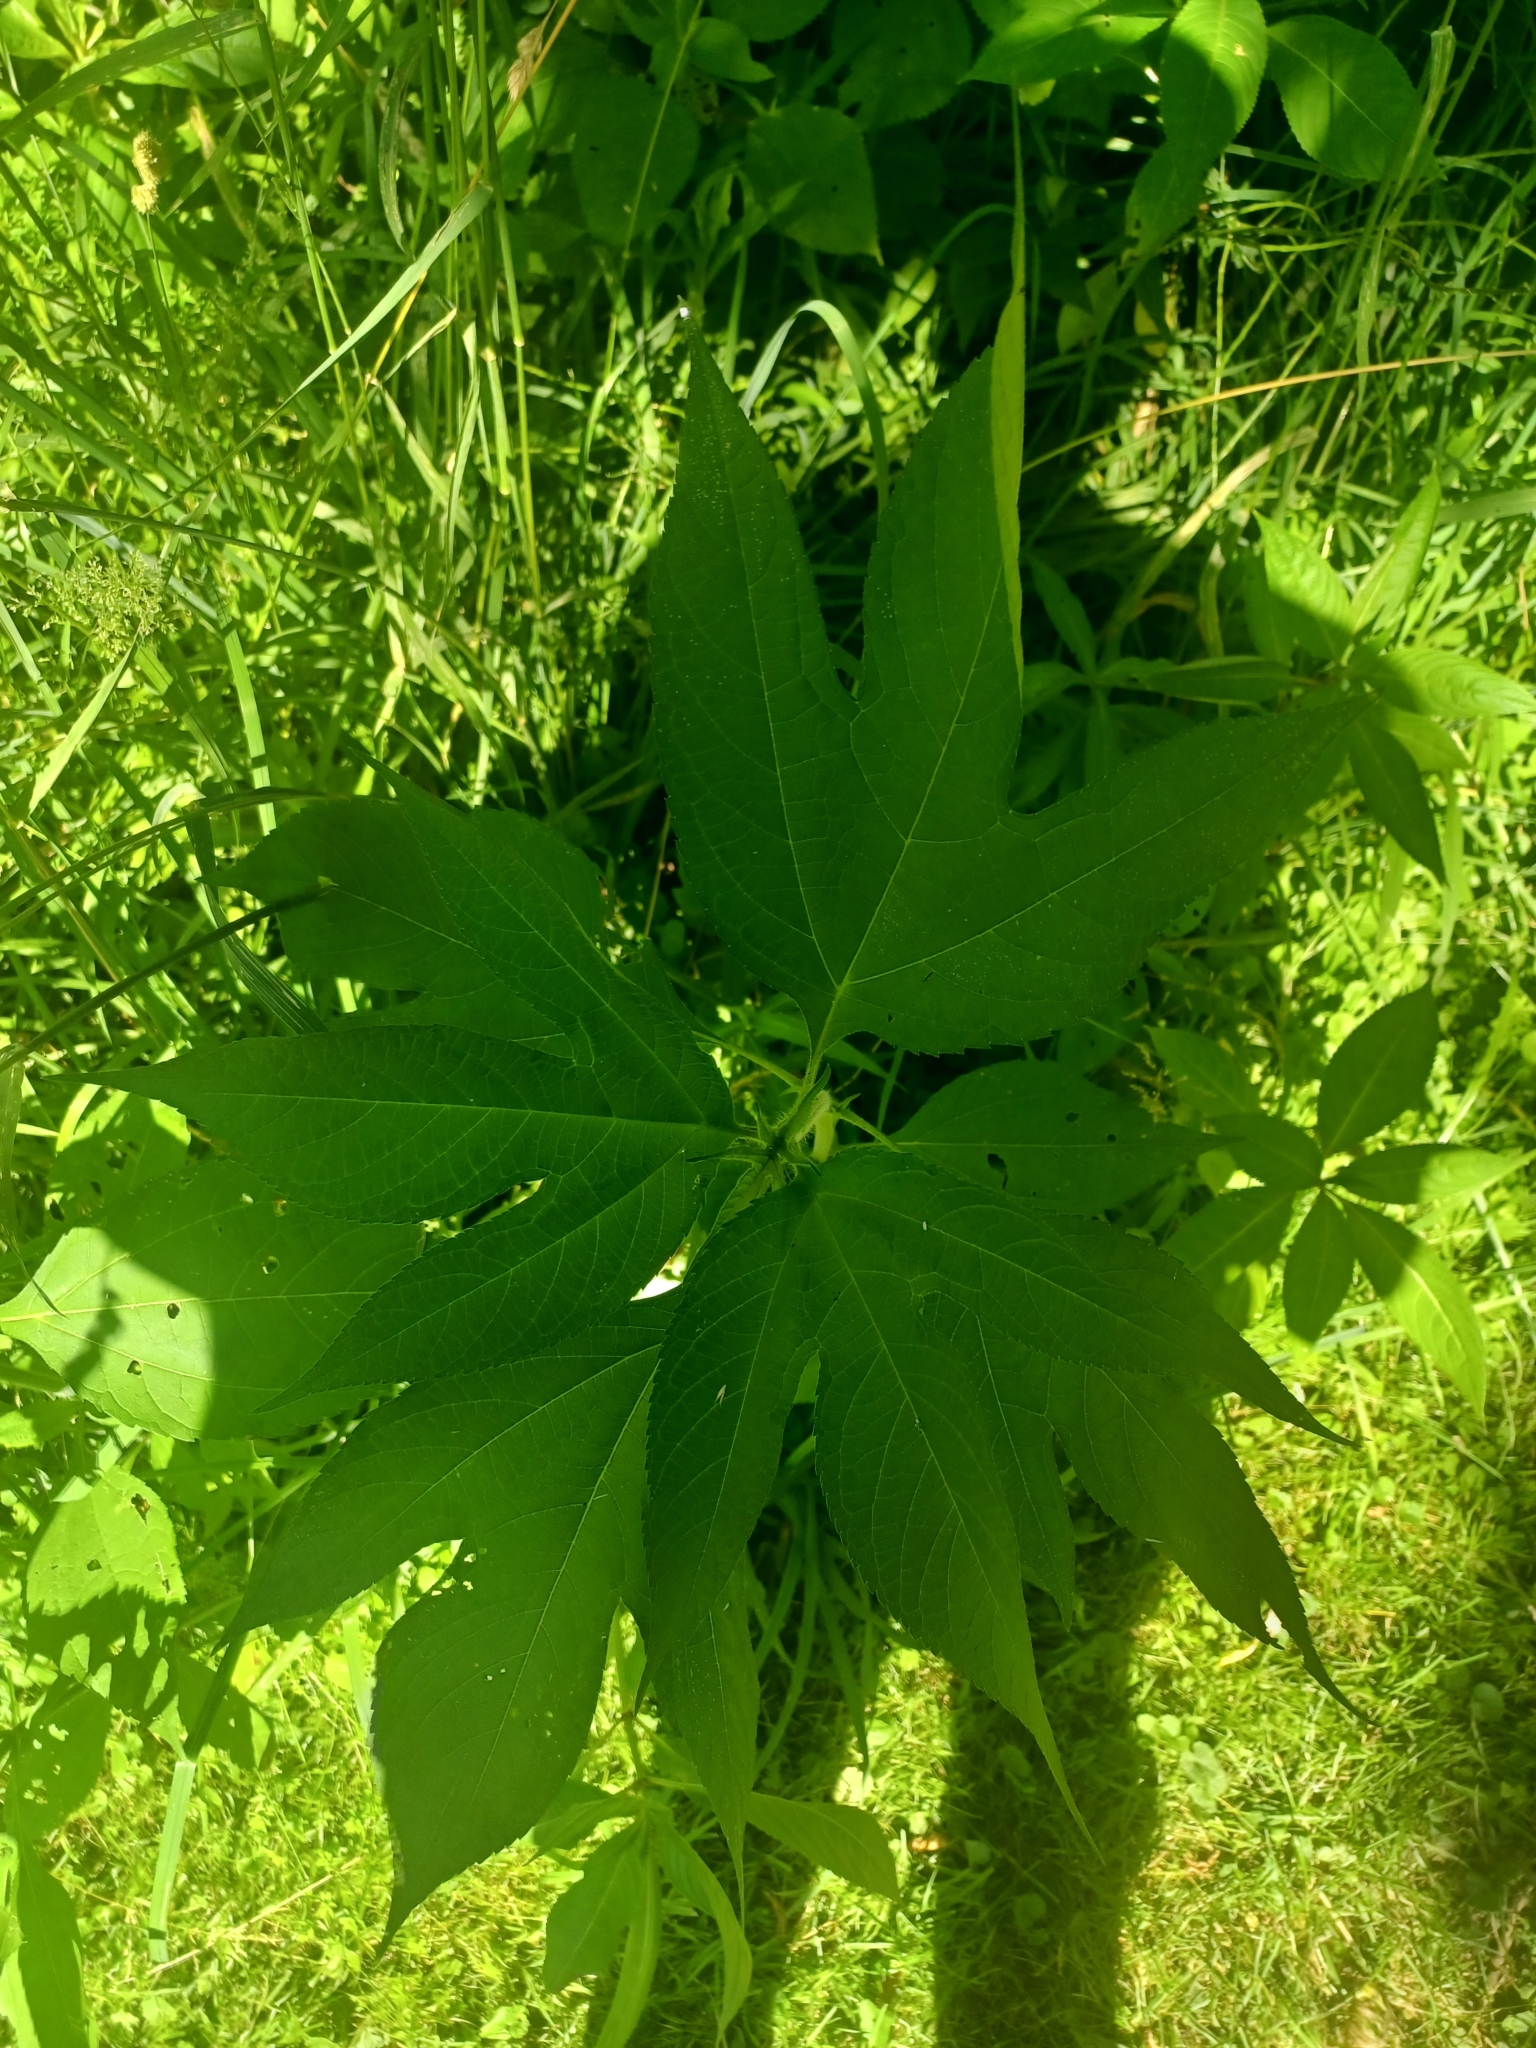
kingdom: Plantae
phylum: Tracheophyta
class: Magnoliopsida
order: Asterales
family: Asteraceae
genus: Ambrosia
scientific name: Ambrosia trifida
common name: Giant ragweed
